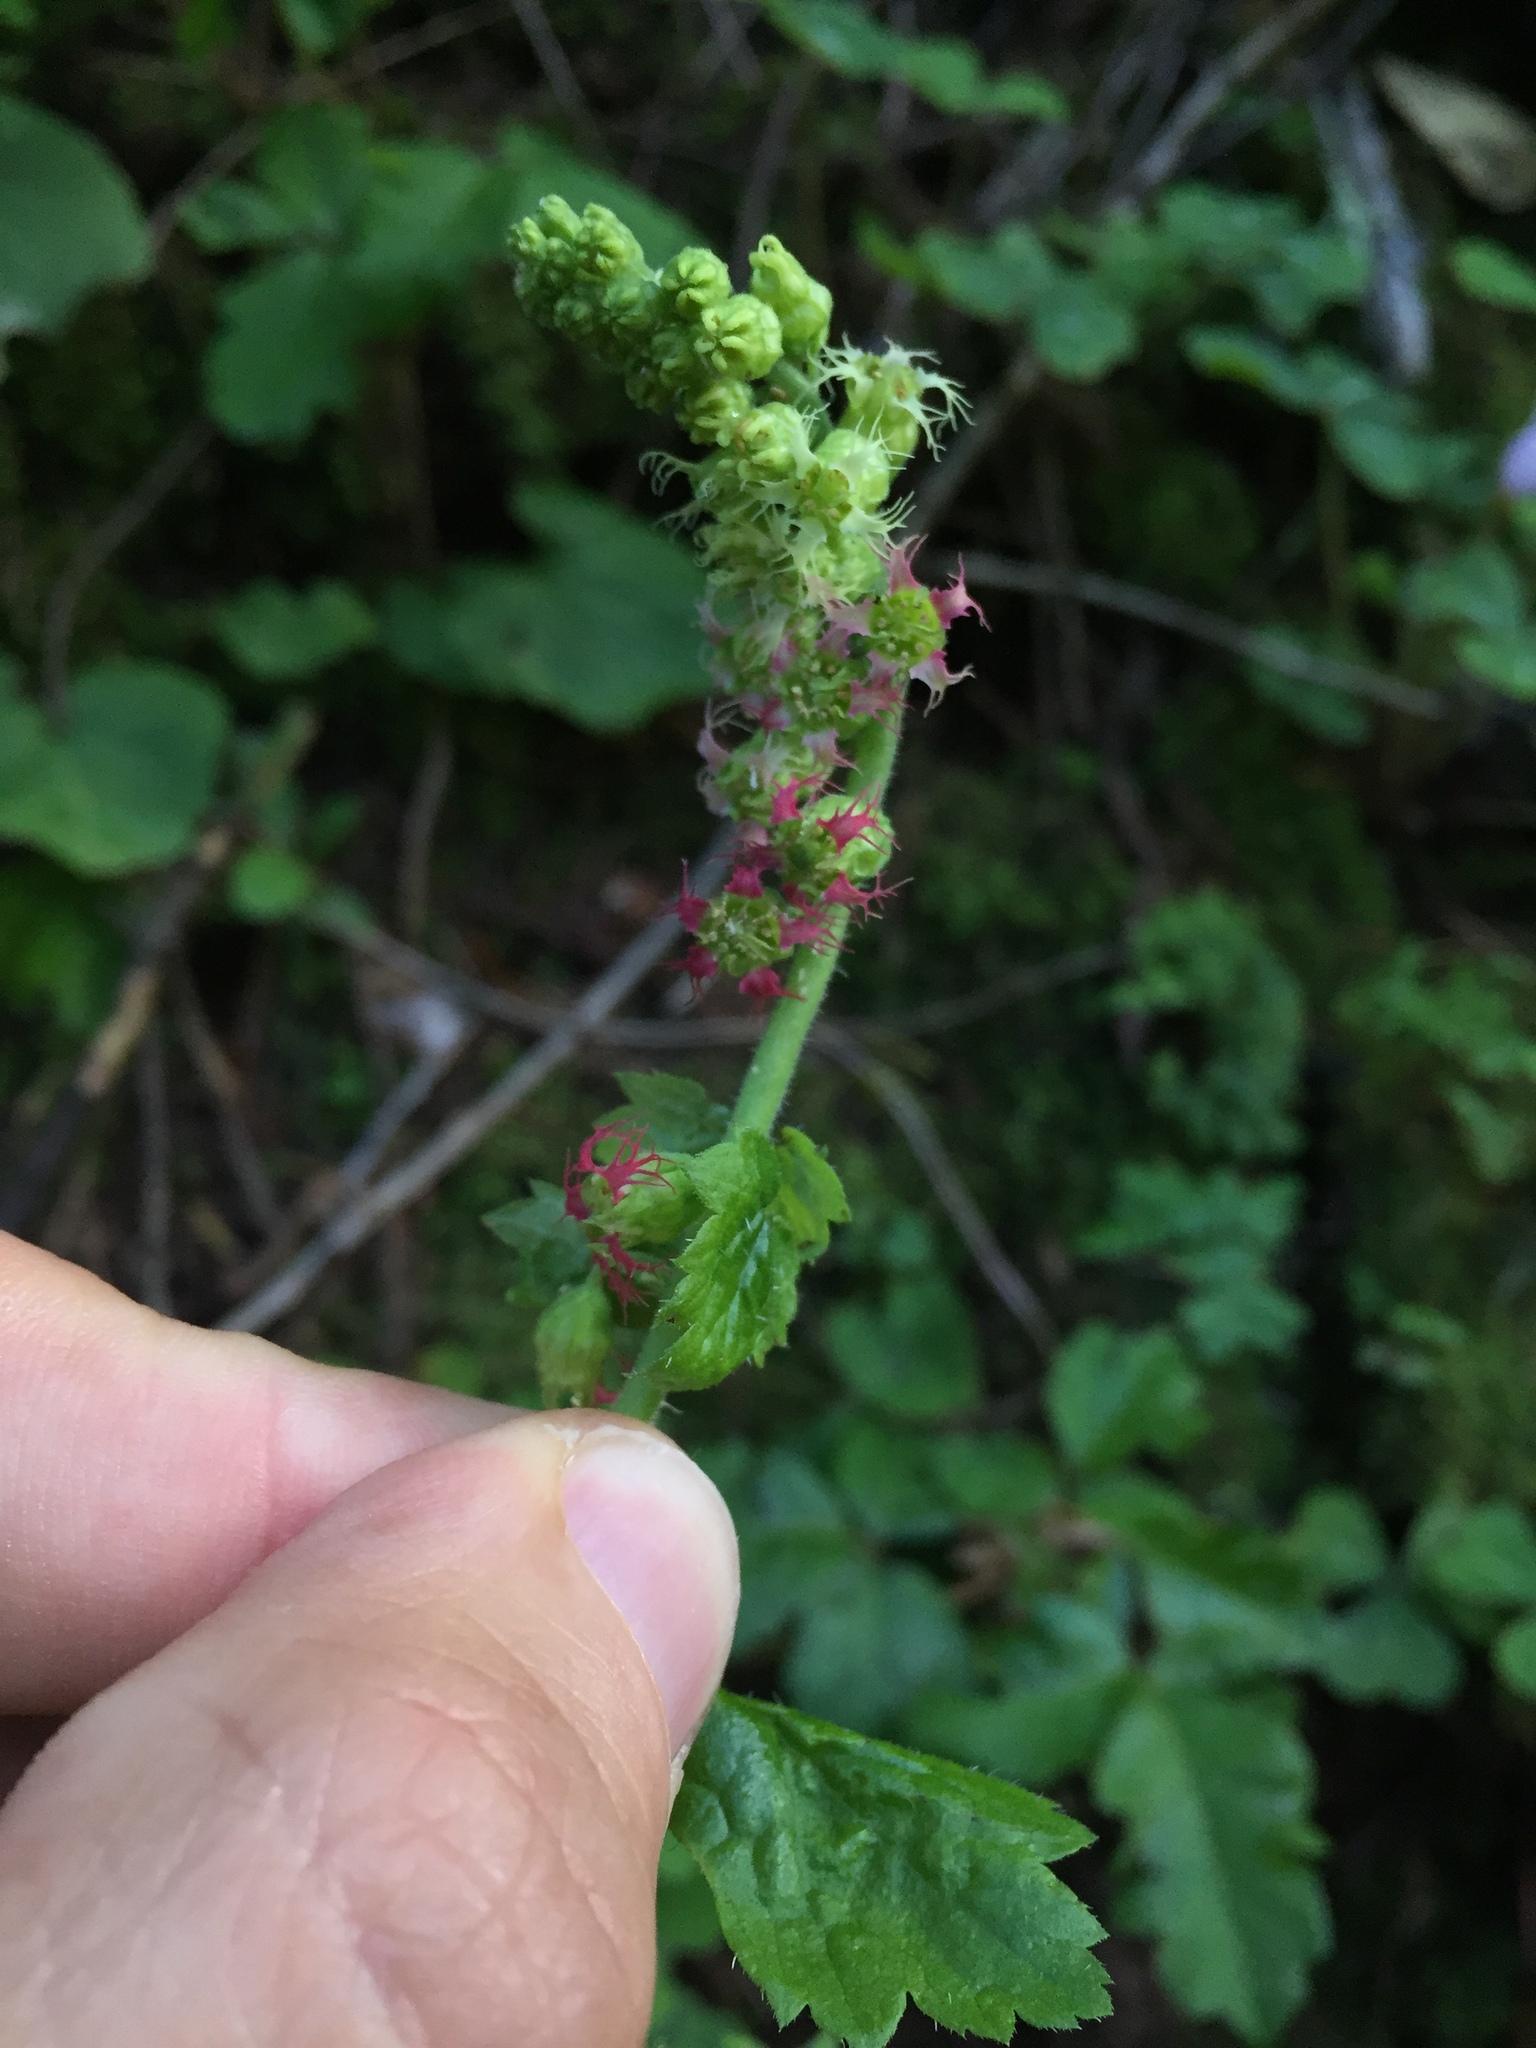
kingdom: Plantae
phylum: Tracheophyta
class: Magnoliopsida
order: Saxifragales
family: Saxifragaceae
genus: Tellima
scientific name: Tellima grandiflora
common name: Fringecups
